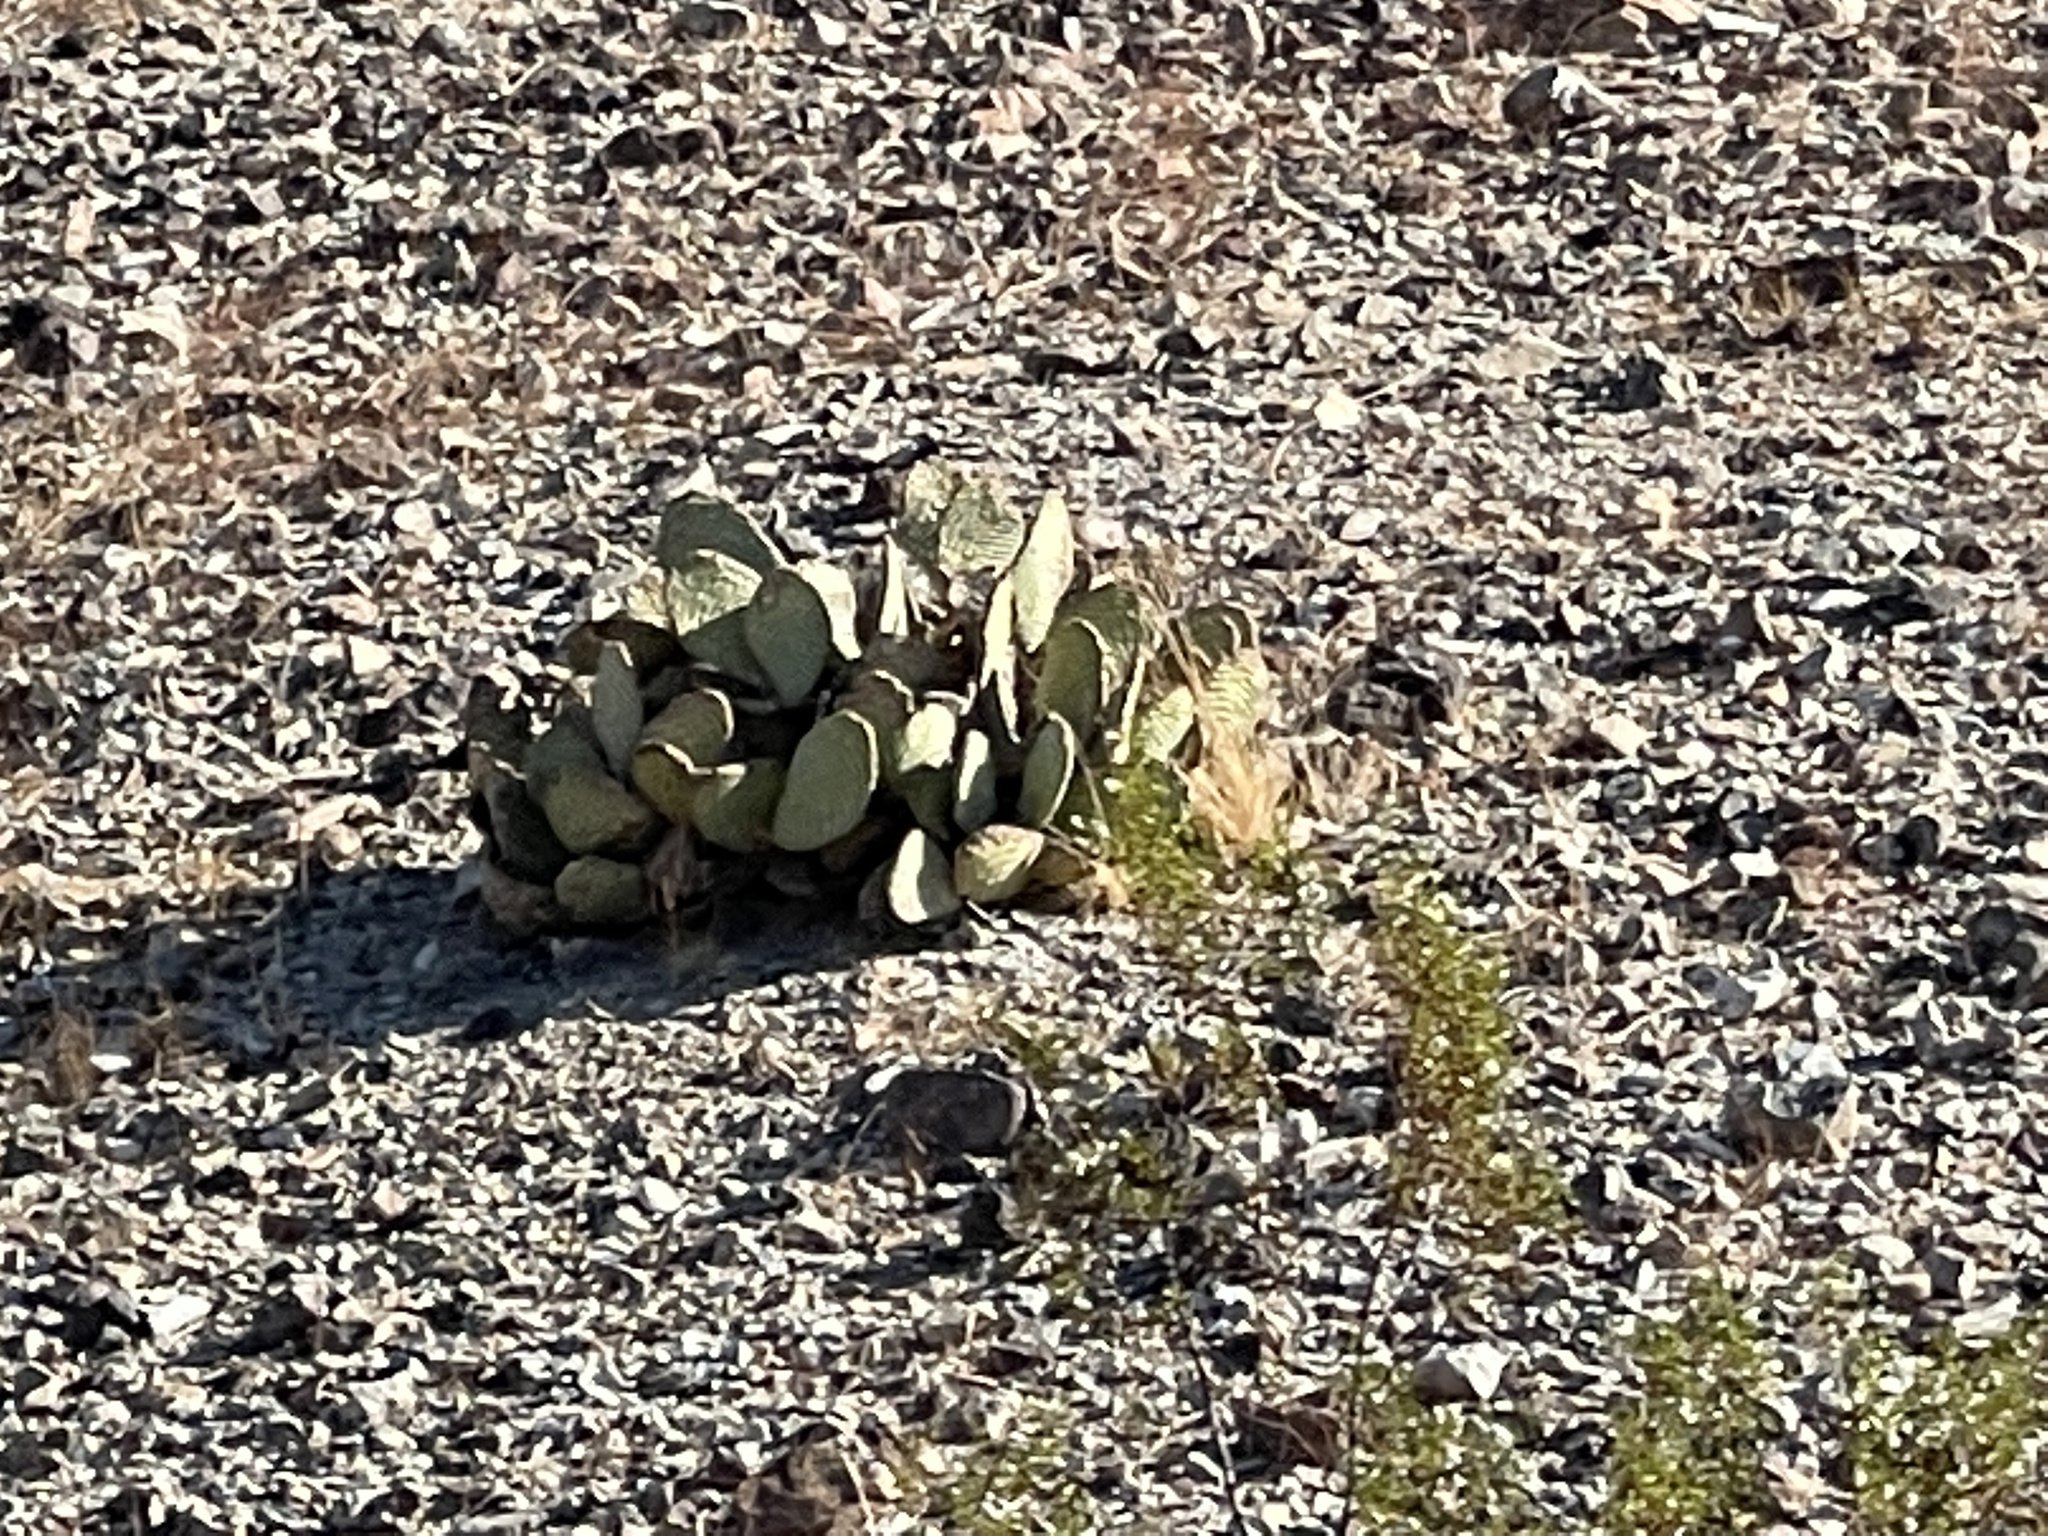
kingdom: Plantae
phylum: Tracheophyta
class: Magnoliopsida
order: Caryophyllales
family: Cactaceae
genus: Opuntia
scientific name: Opuntia basilaris
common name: Beavertail prickly-pear
